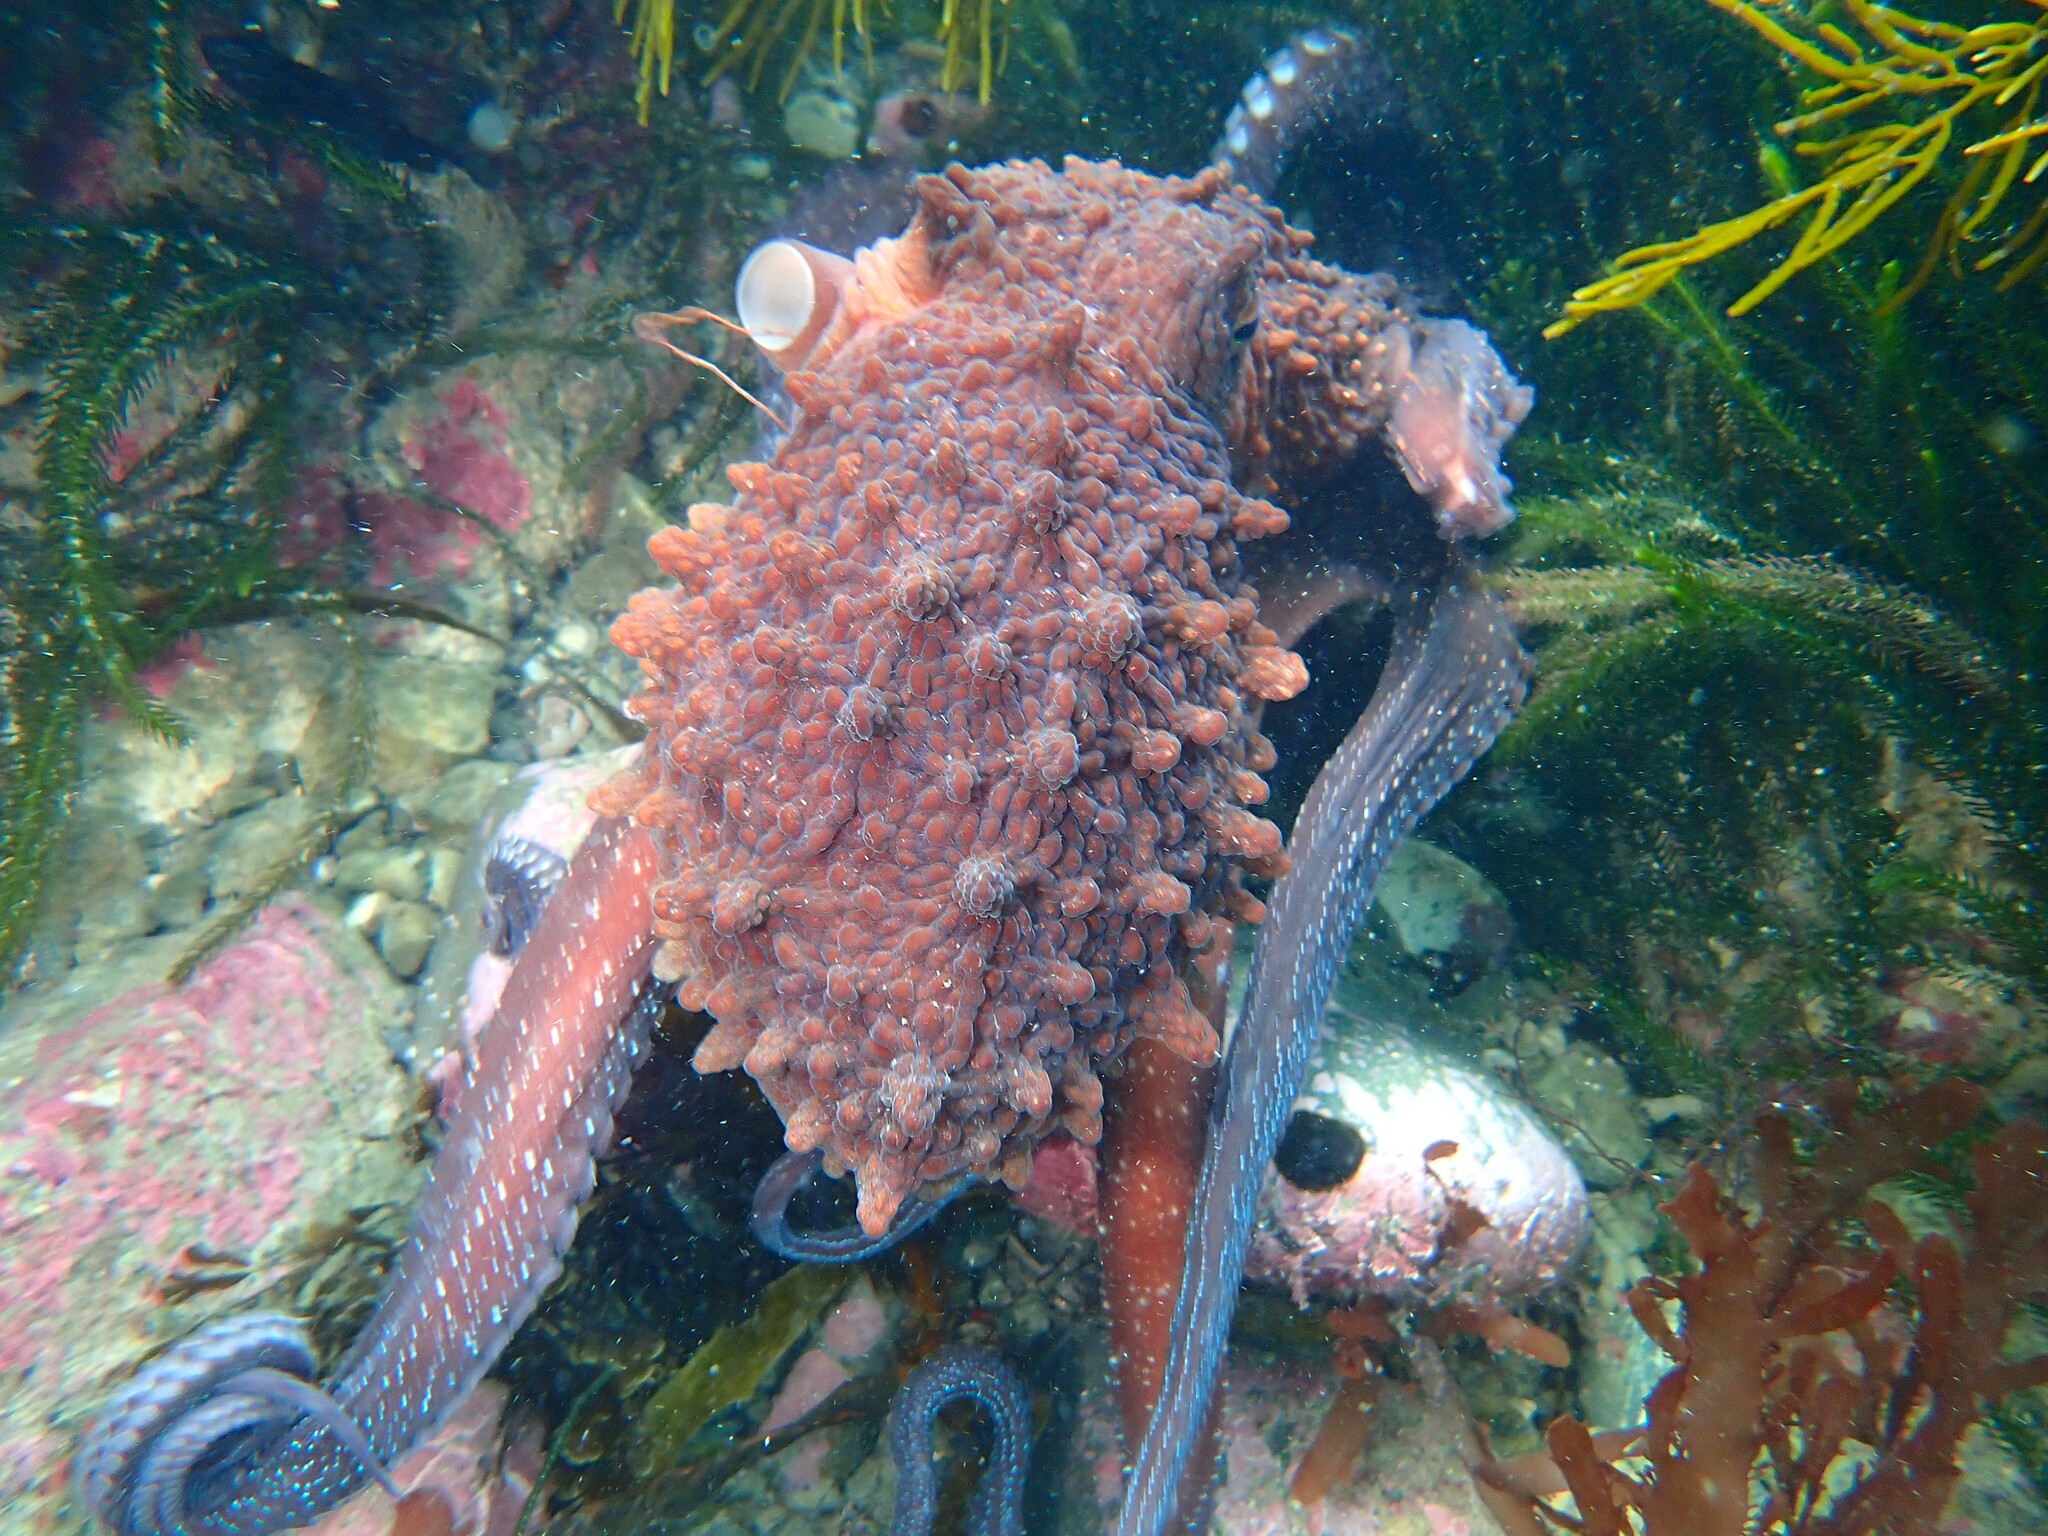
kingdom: Animalia
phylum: Mollusca
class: Cephalopoda
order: Octopoda
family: Octopodidae
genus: Macroctopus
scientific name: Macroctopus maorum
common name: Maori octopus
